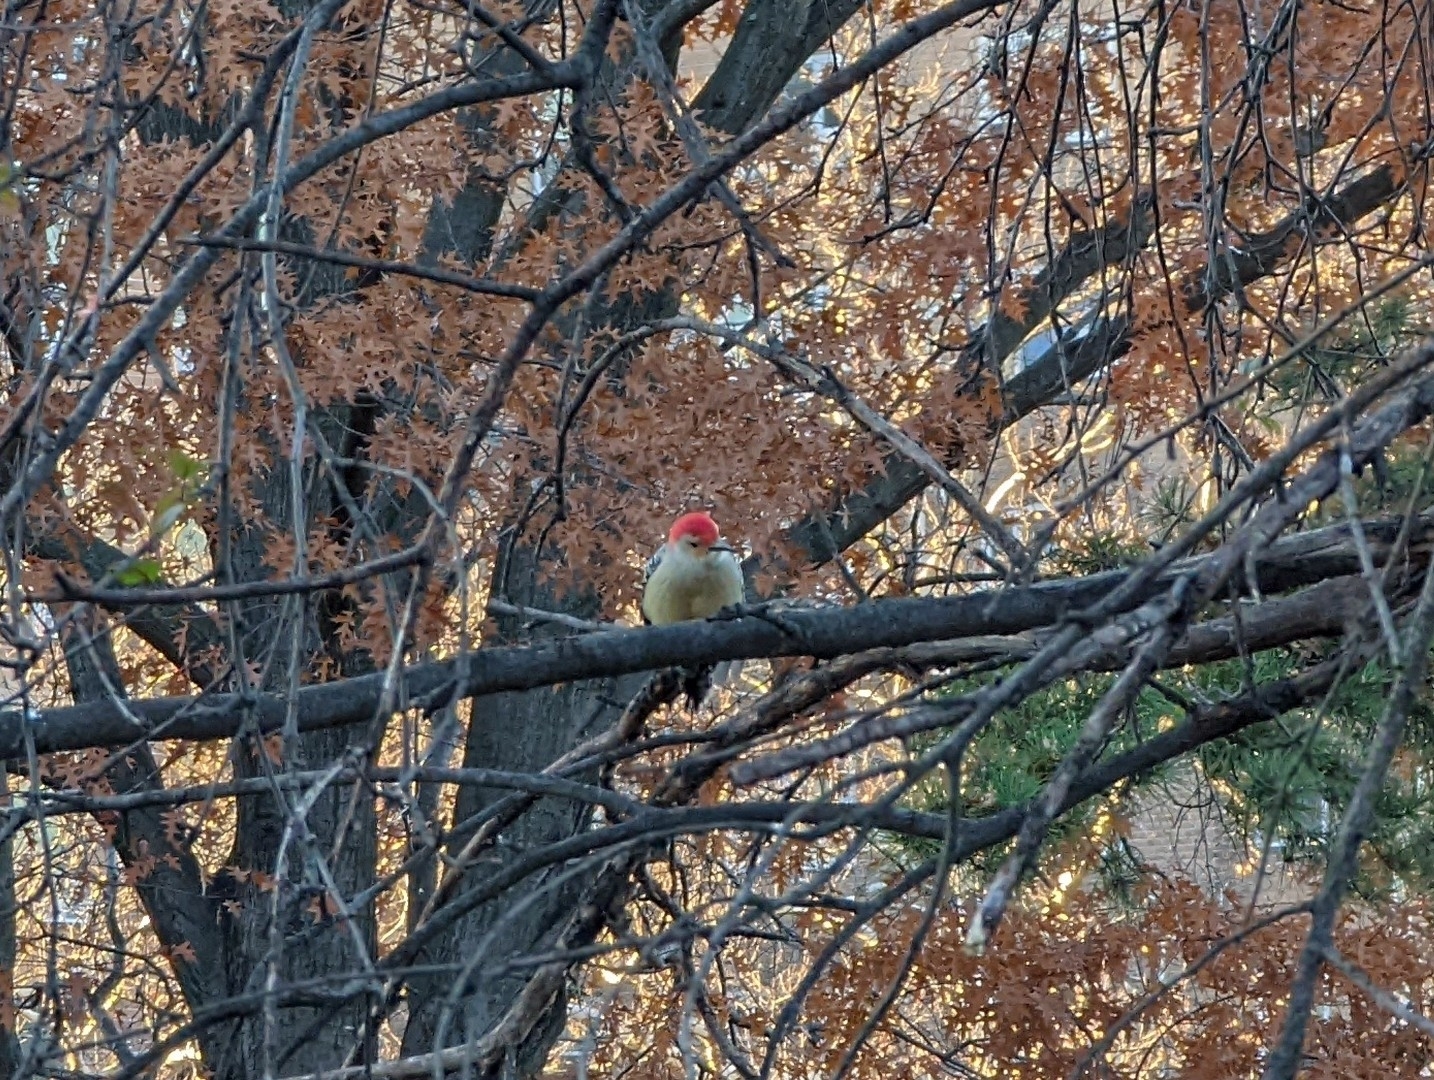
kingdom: Animalia
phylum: Chordata
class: Aves
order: Piciformes
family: Picidae
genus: Melanerpes
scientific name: Melanerpes carolinus
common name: Red-bellied woodpecker
